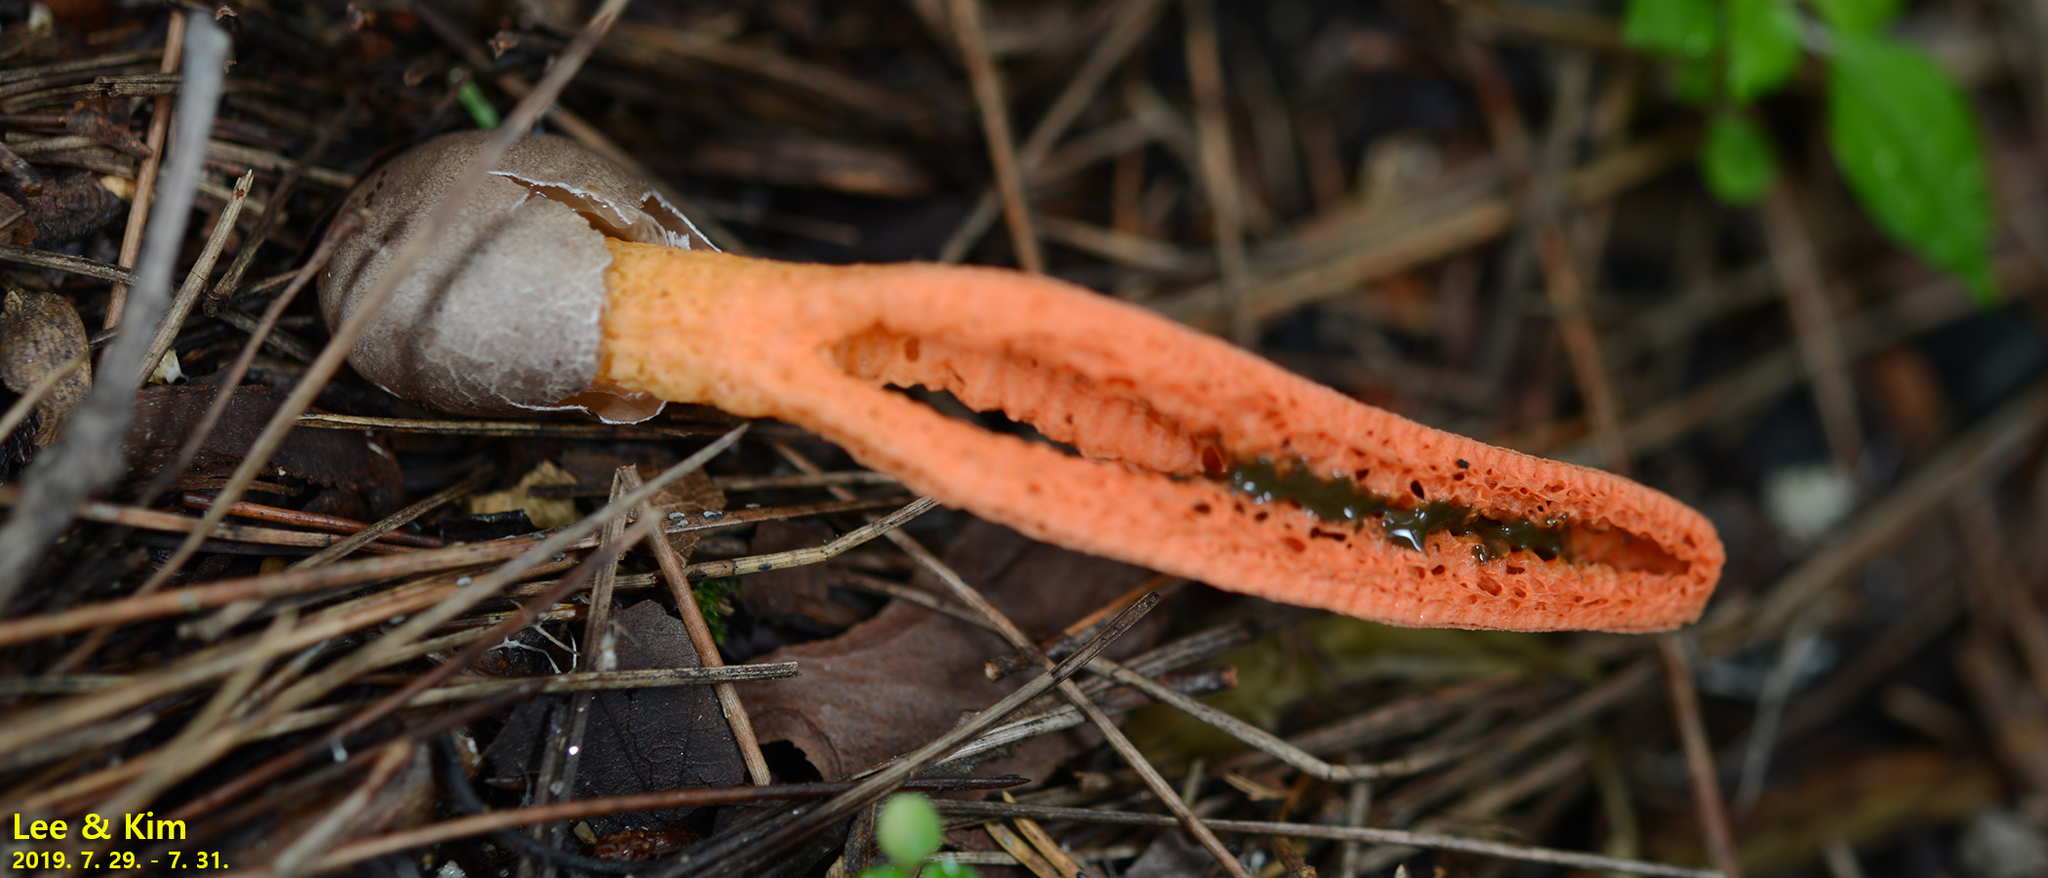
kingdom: Fungi
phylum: Basidiomycota
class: Agaricomycetes
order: Phallales
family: Phallaceae
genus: Pseudocolus
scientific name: Pseudocolus fusiformis
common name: Stinky squid
